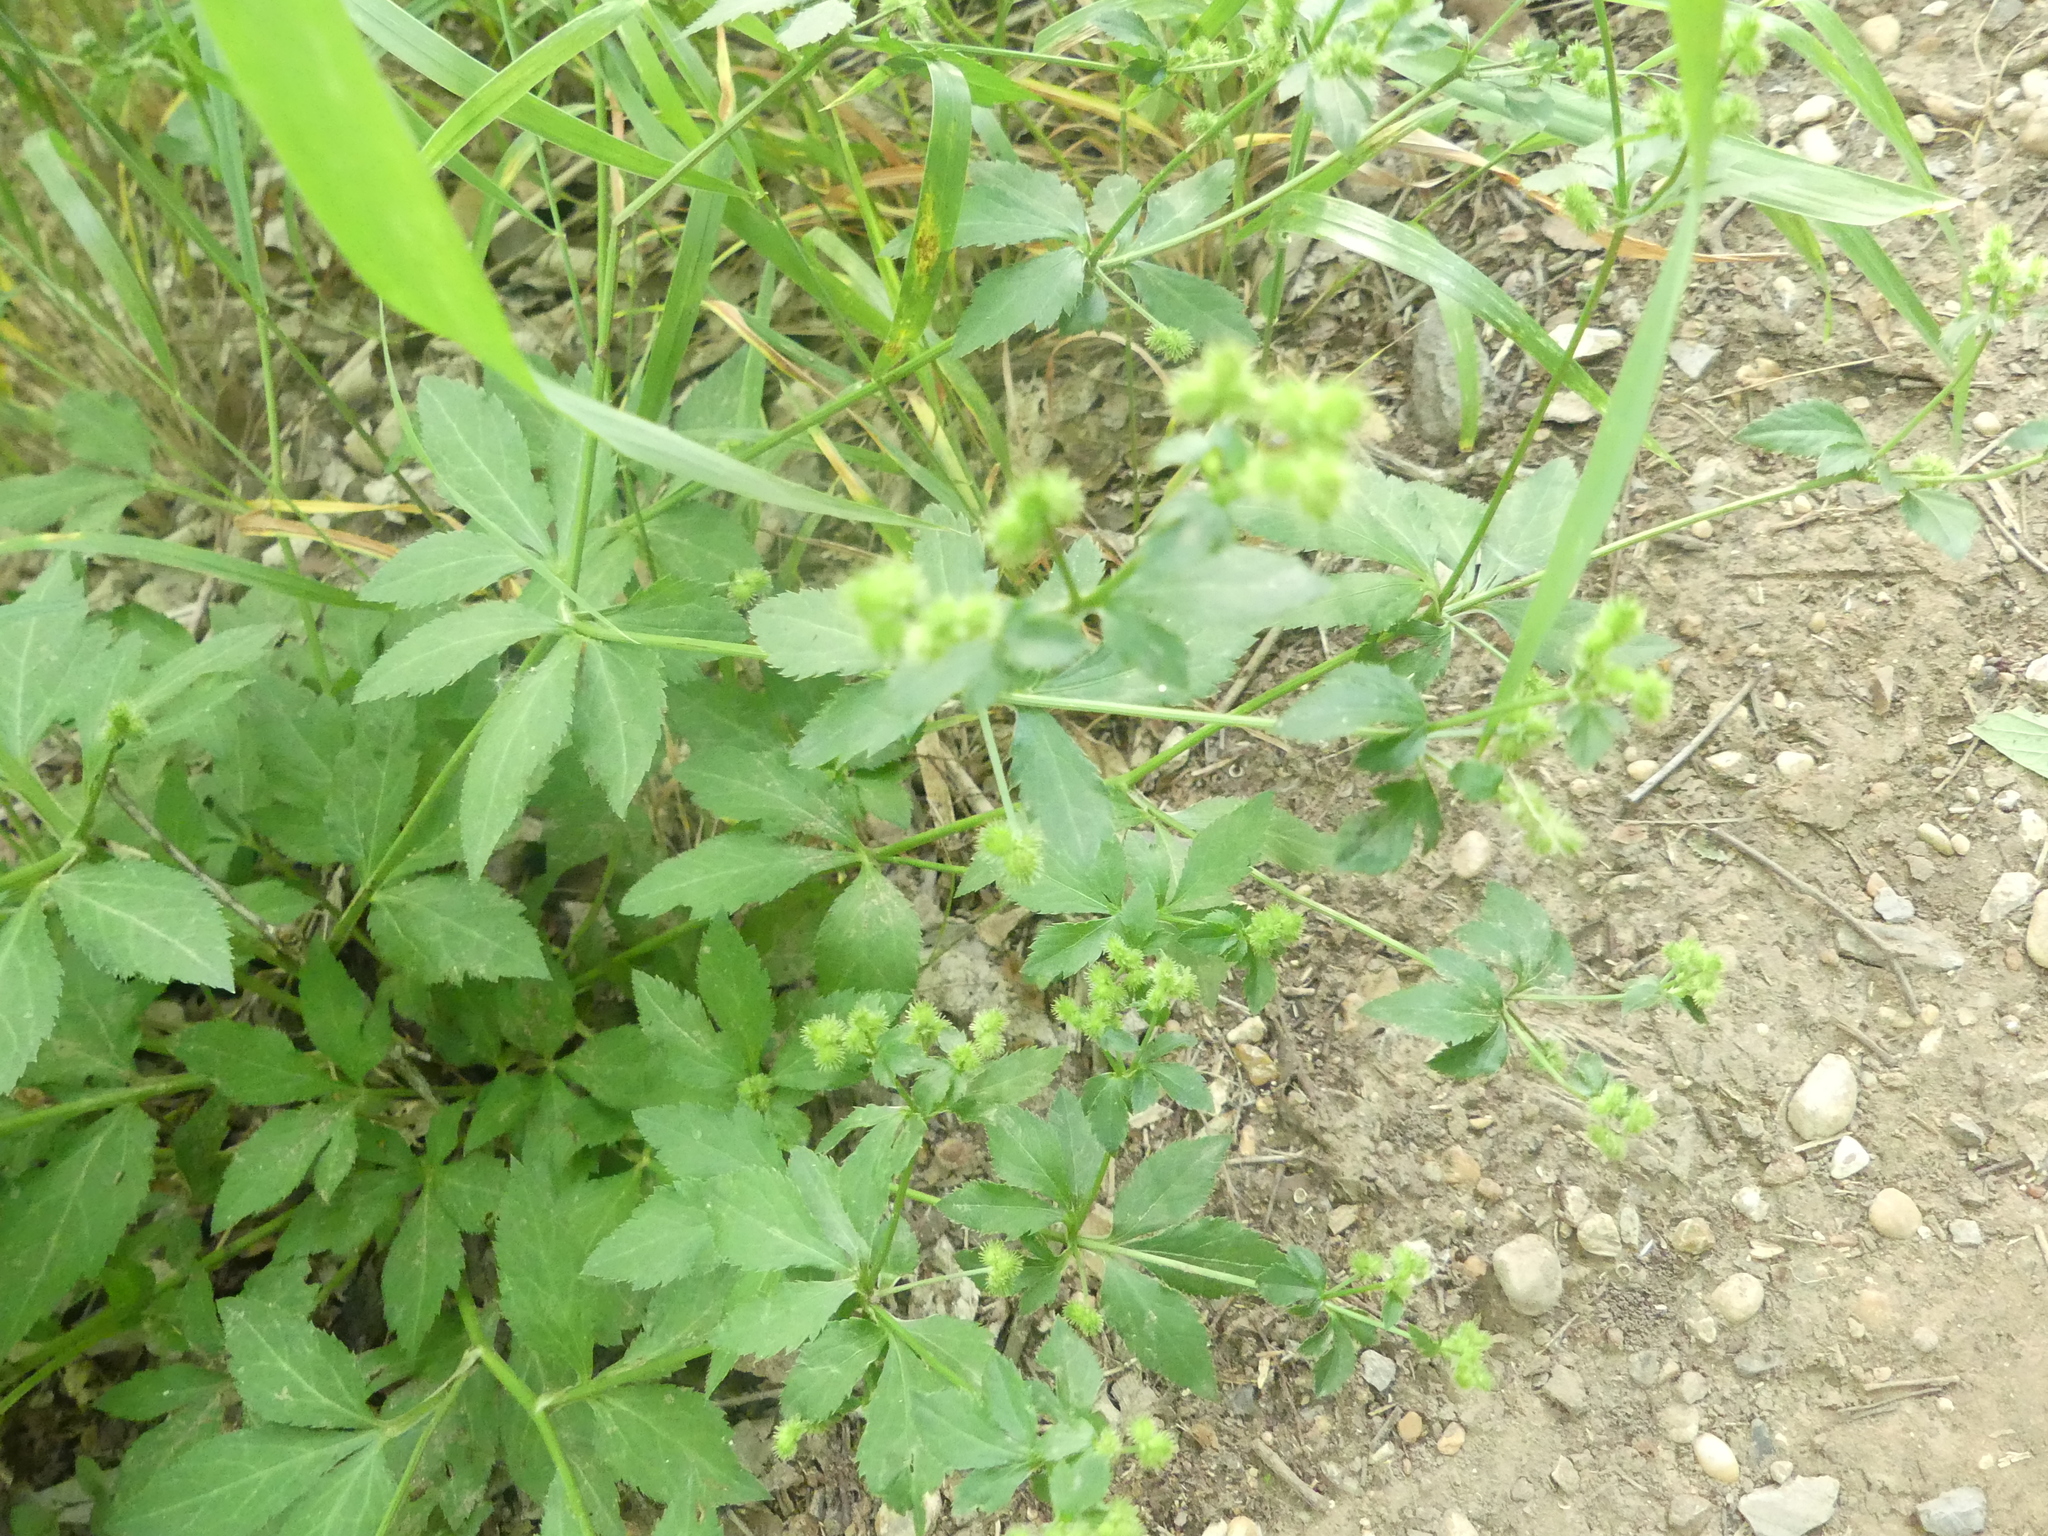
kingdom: Plantae
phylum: Tracheophyta
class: Magnoliopsida
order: Apiales
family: Apiaceae
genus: Sanicula
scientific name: Sanicula canadensis
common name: Canada sanicle
